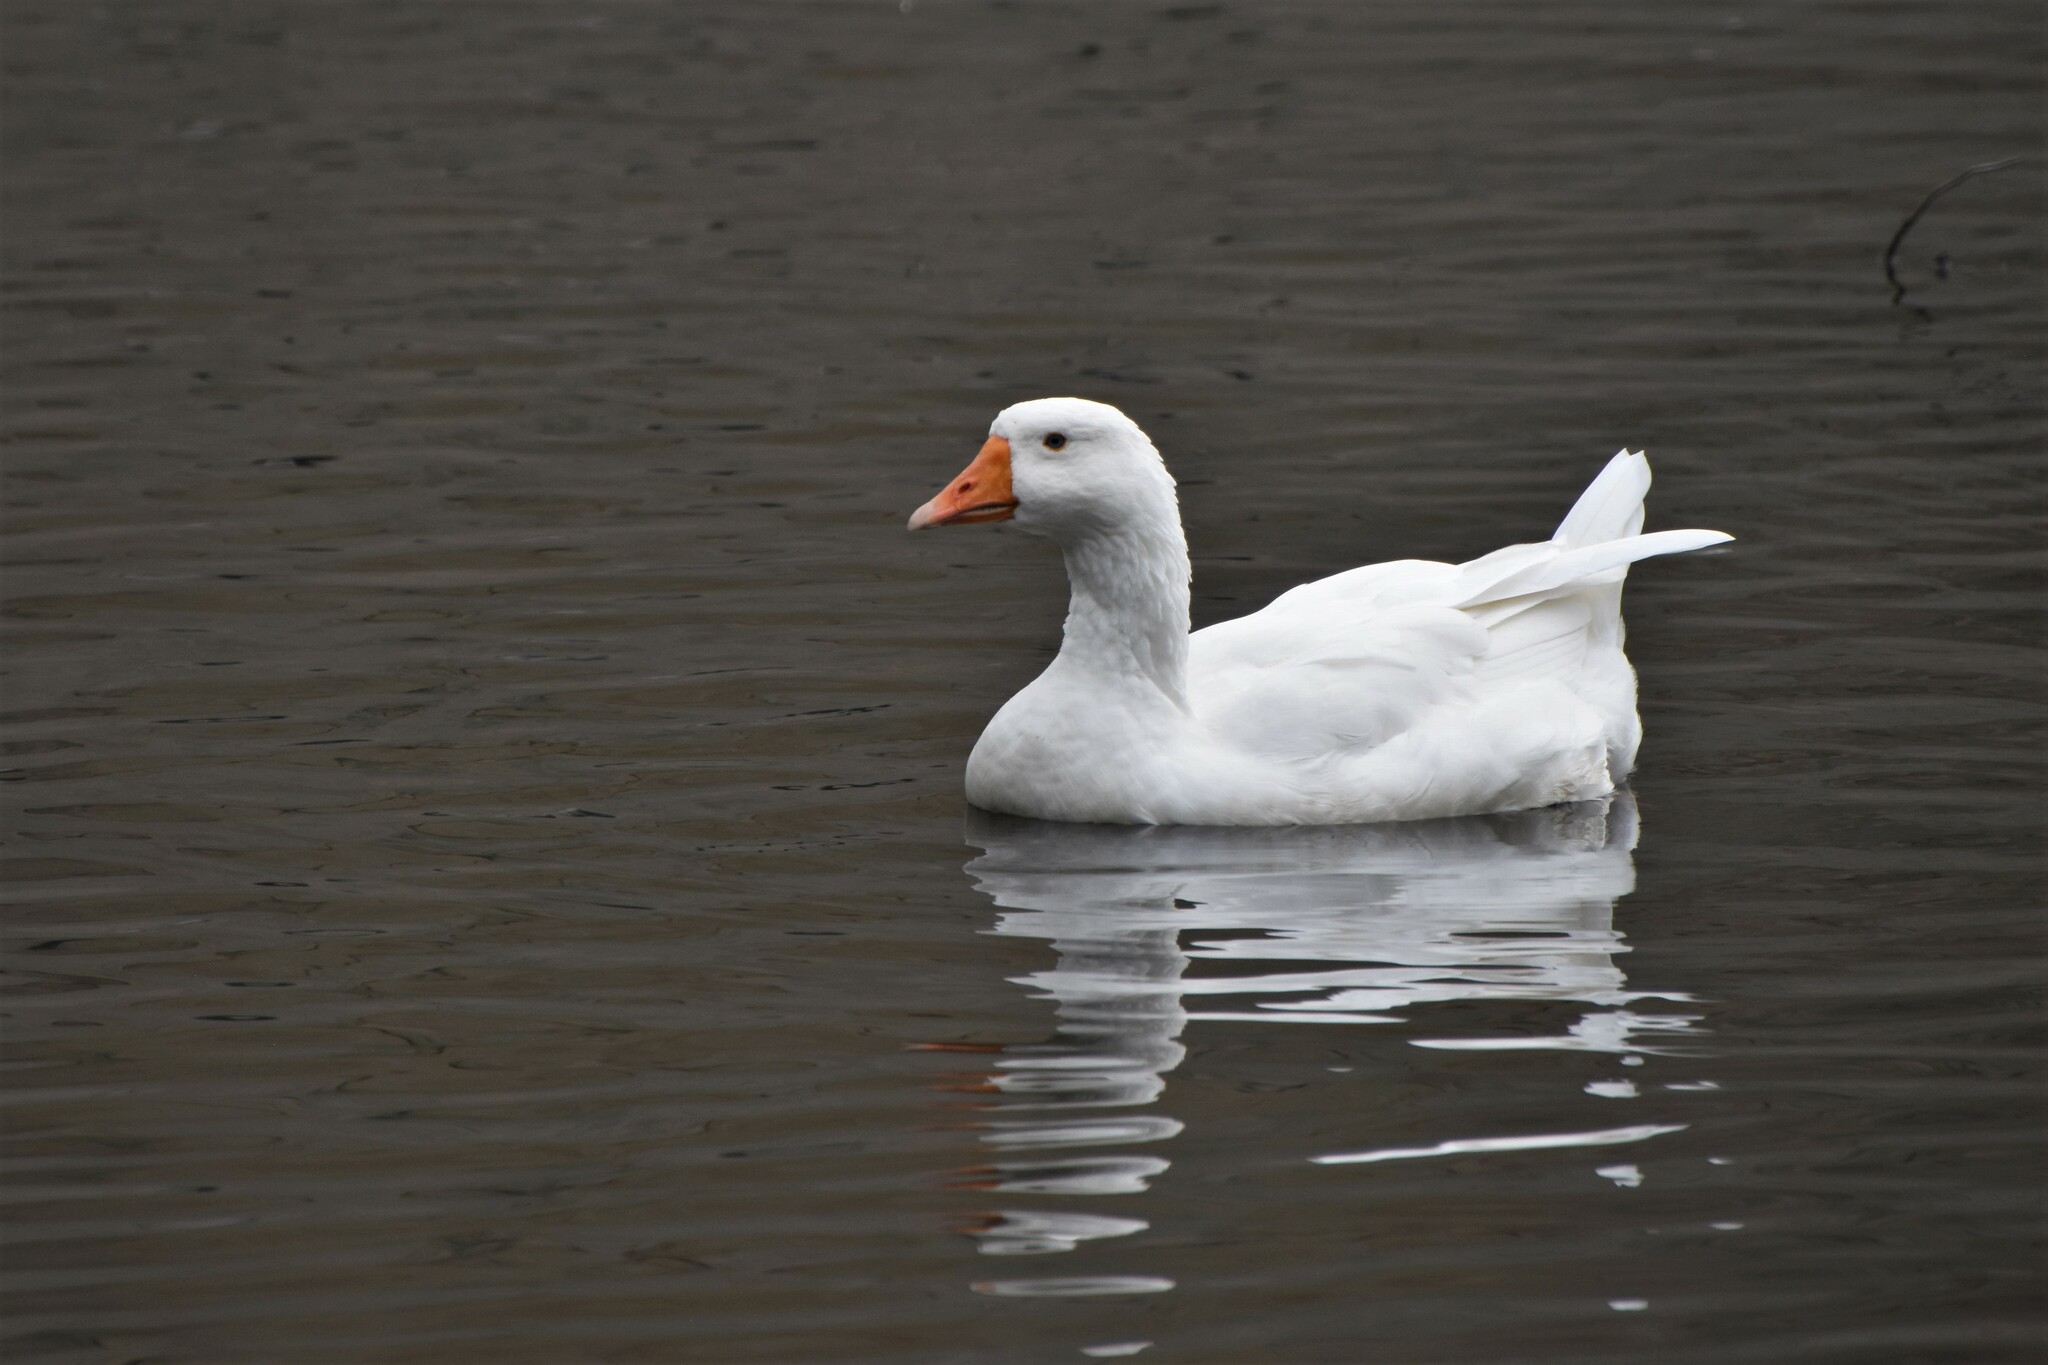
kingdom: Animalia
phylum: Chordata
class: Aves
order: Anseriformes
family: Anatidae
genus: Anser
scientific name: Anser anser
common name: Greylag goose
